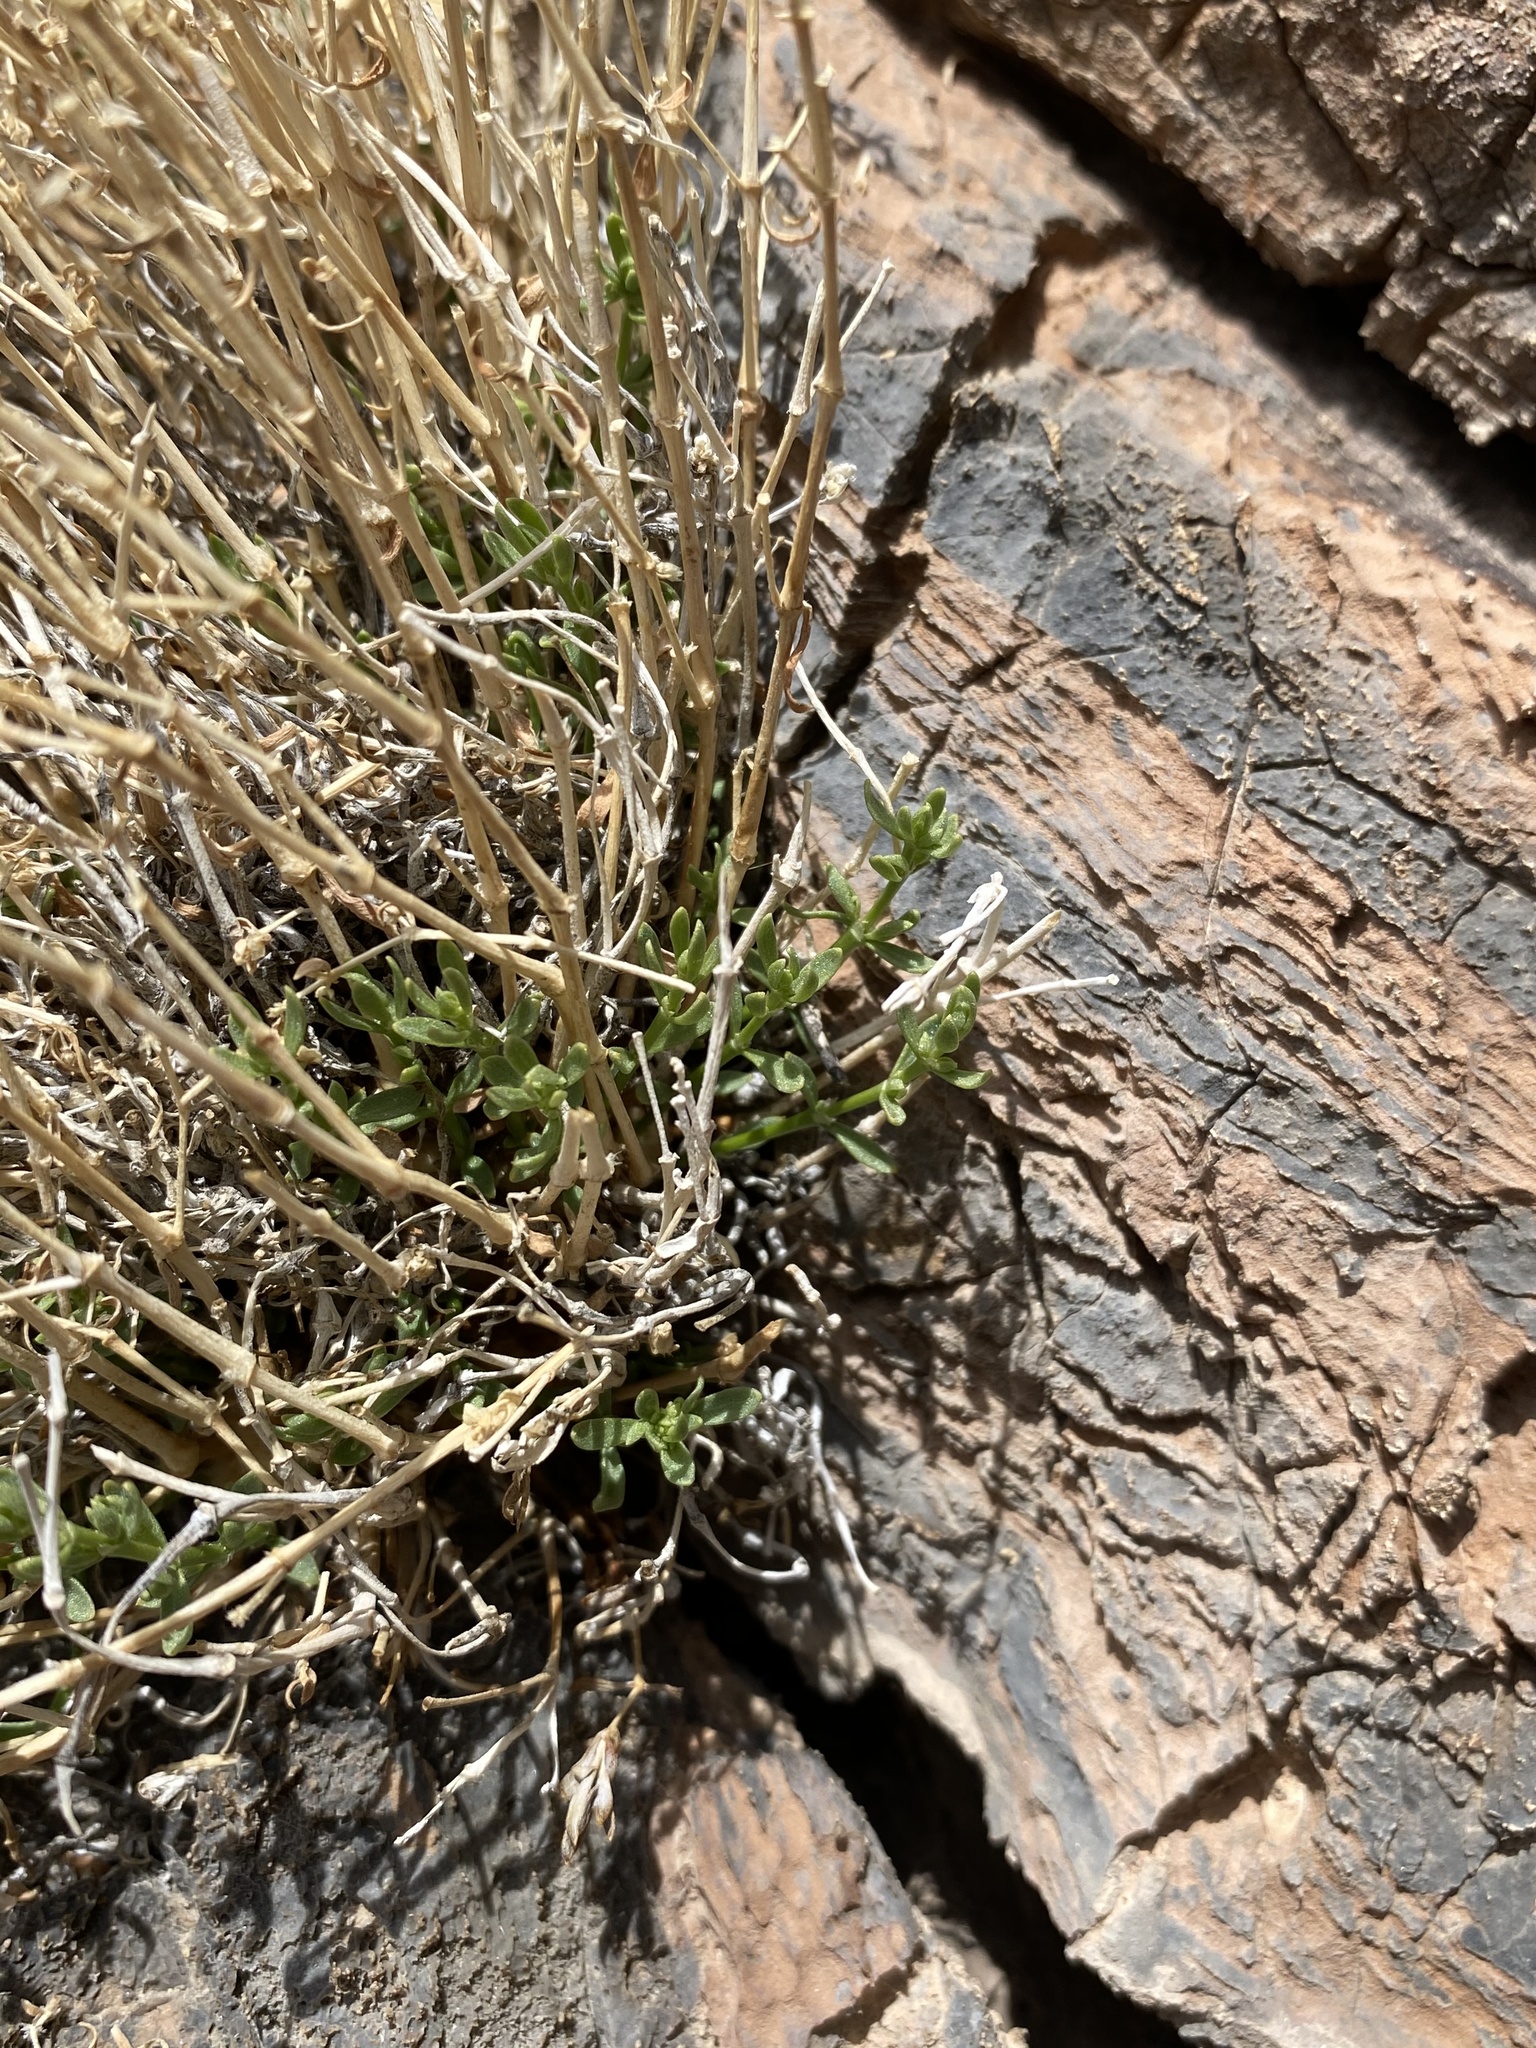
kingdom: Plantae
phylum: Tracheophyta
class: Magnoliopsida
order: Caryophyllales
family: Caryophyllaceae
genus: Scopulophila
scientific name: Scopulophila rixfordii
